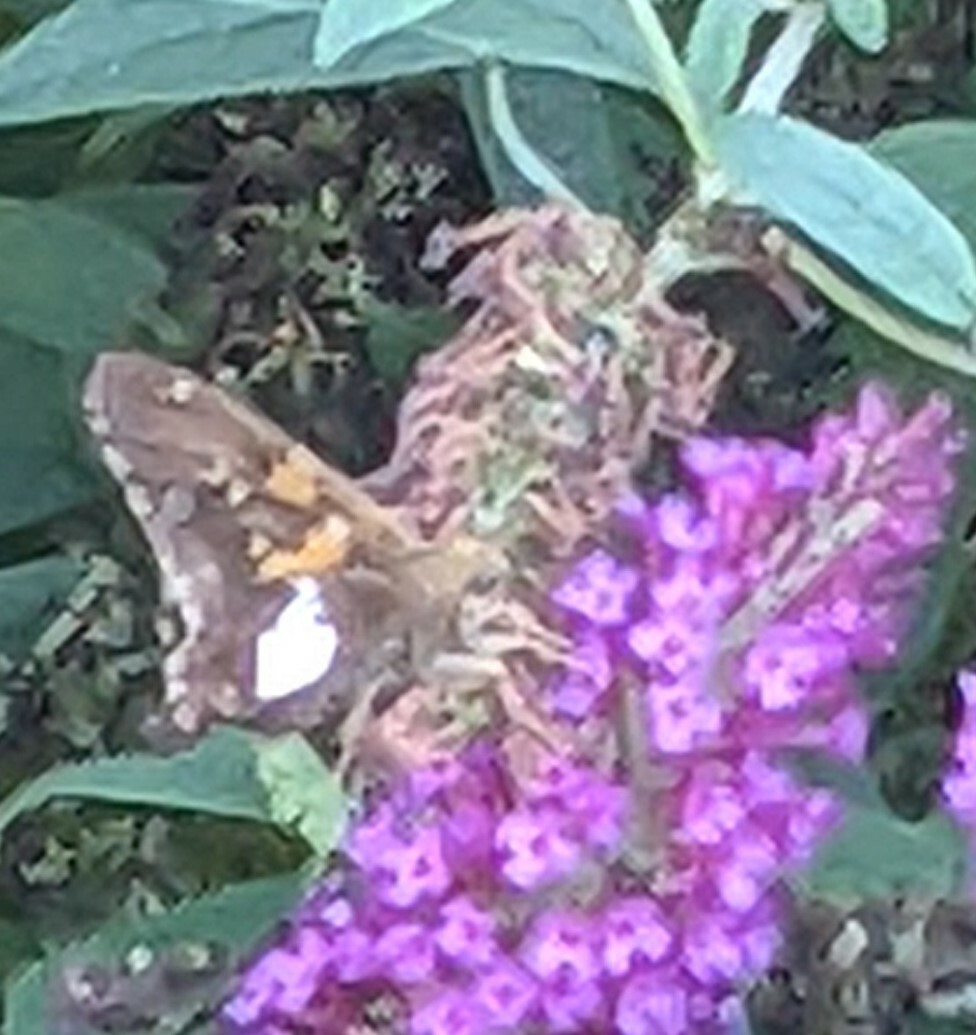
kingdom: Animalia
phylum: Arthropoda
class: Insecta
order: Lepidoptera
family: Hesperiidae
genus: Epargyreus
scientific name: Epargyreus clarus
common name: Silver-spotted skipper
